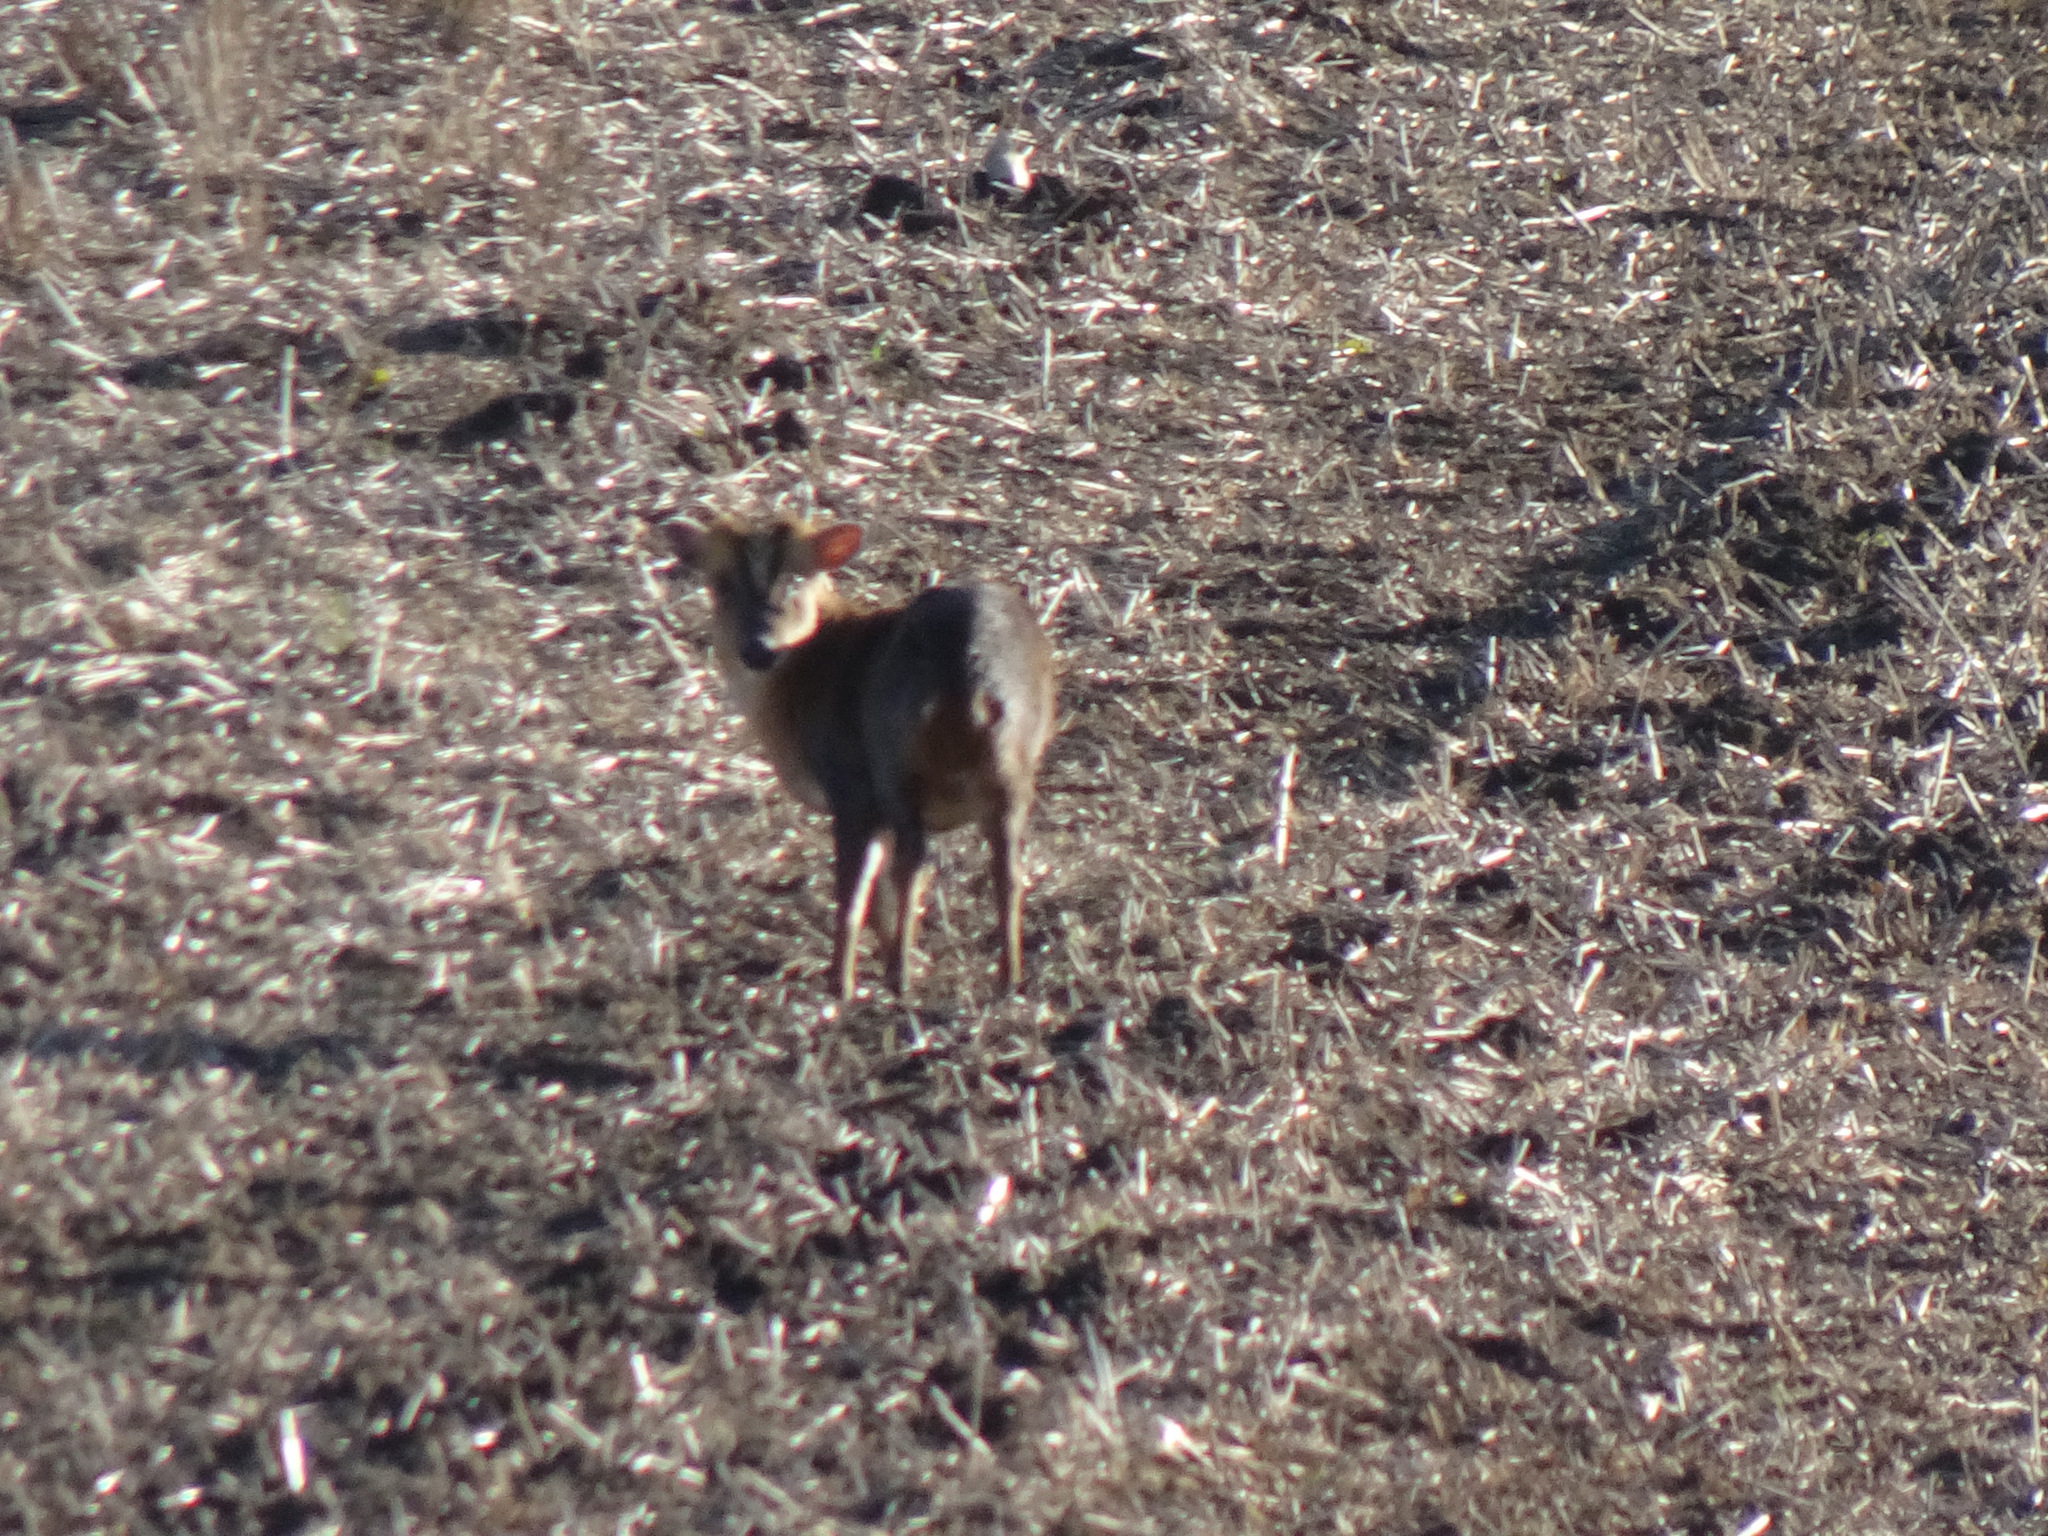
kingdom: Animalia
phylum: Chordata
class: Mammalia
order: Artiodactyla
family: Cervidae
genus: Muntiacus
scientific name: Muntiacus reevesi
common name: Reeves' muntjac
